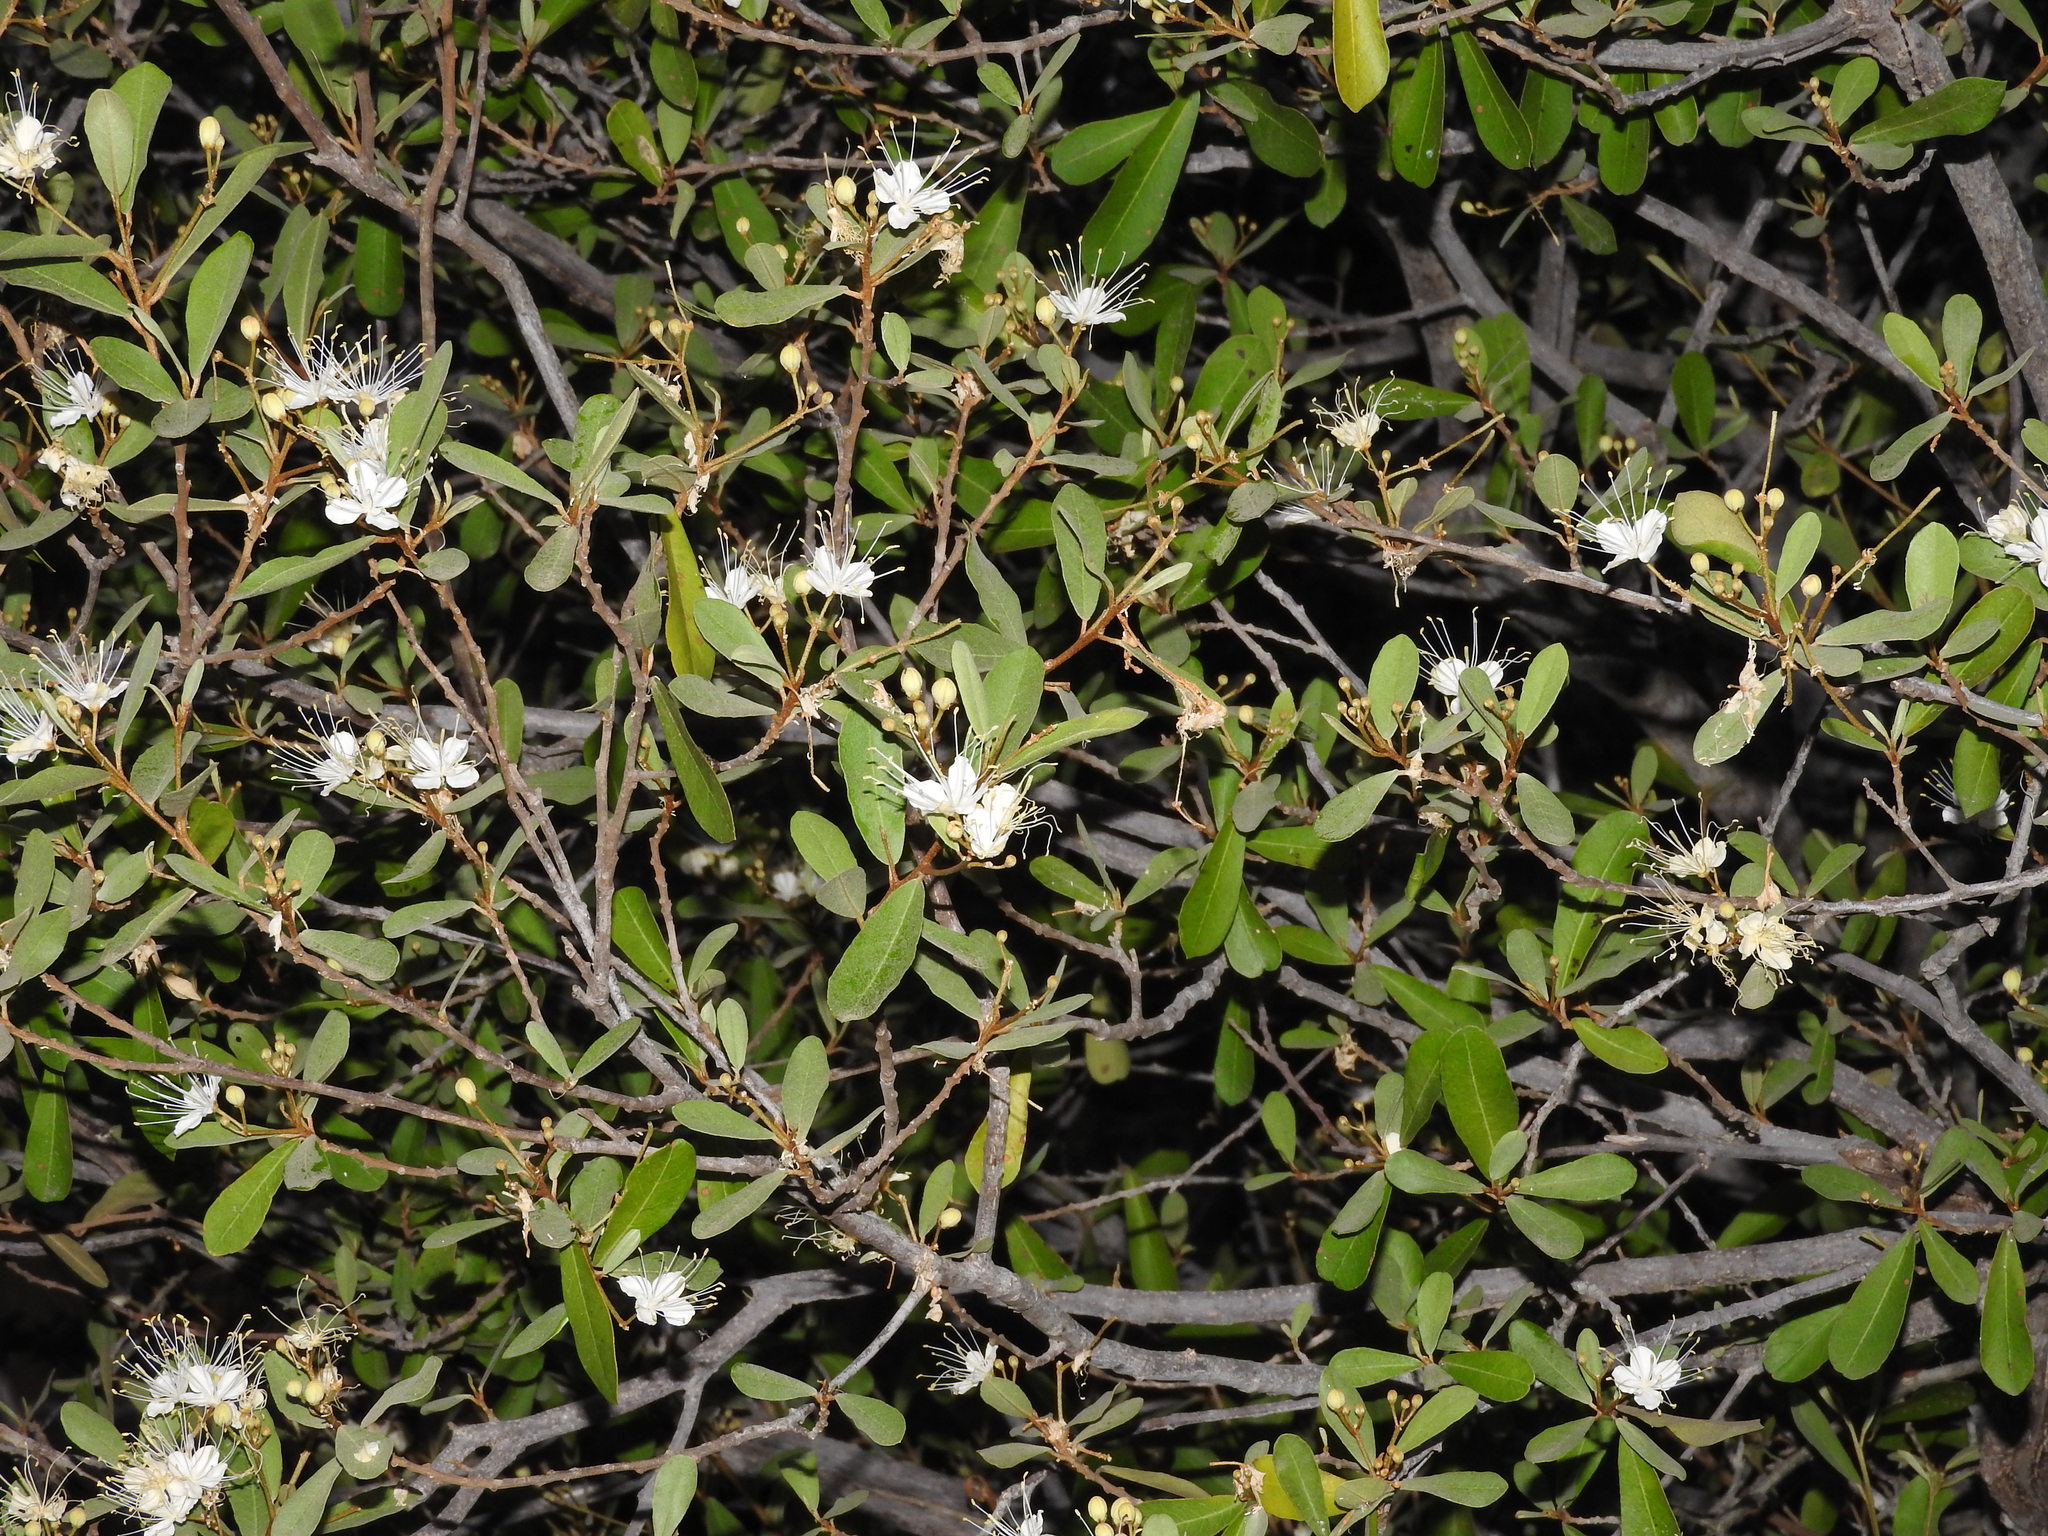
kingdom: Plantae
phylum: Tracheophyta
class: Magnoliopsida
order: Brassicales
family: Capparaceae
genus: Quadrella
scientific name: Quadrella indica
